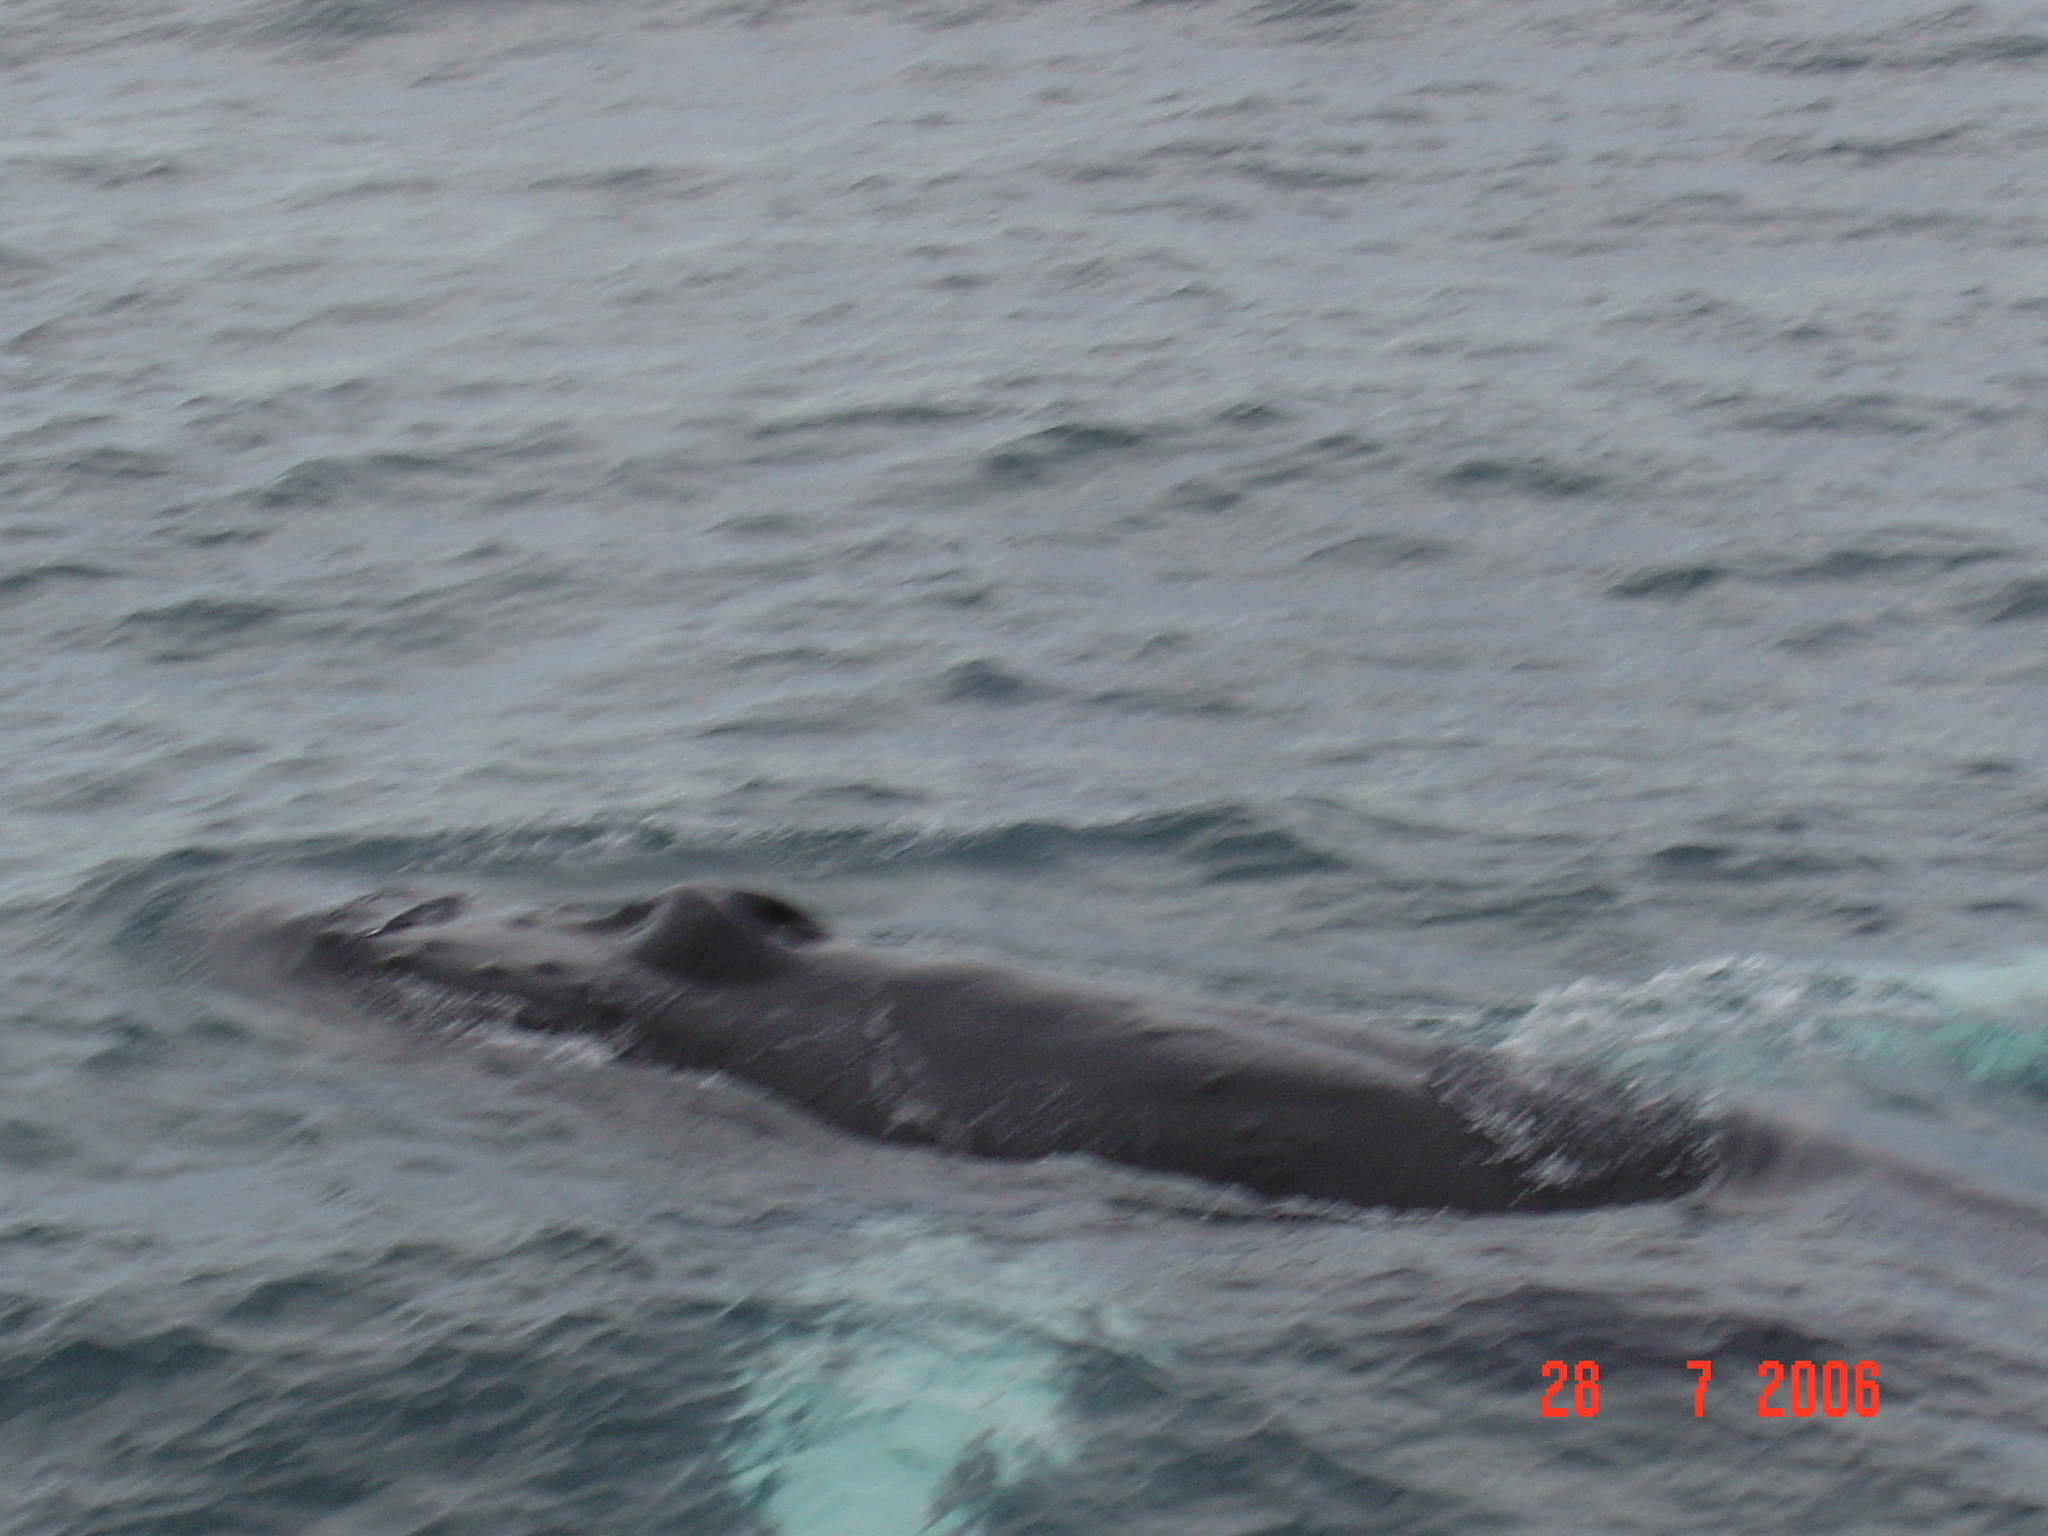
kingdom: Animalia
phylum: Chordata
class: Mammalia
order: Cetacea
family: Balaenopteridae
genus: Megaptera
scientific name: Megaptera novaeangliae
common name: Humpback whale
